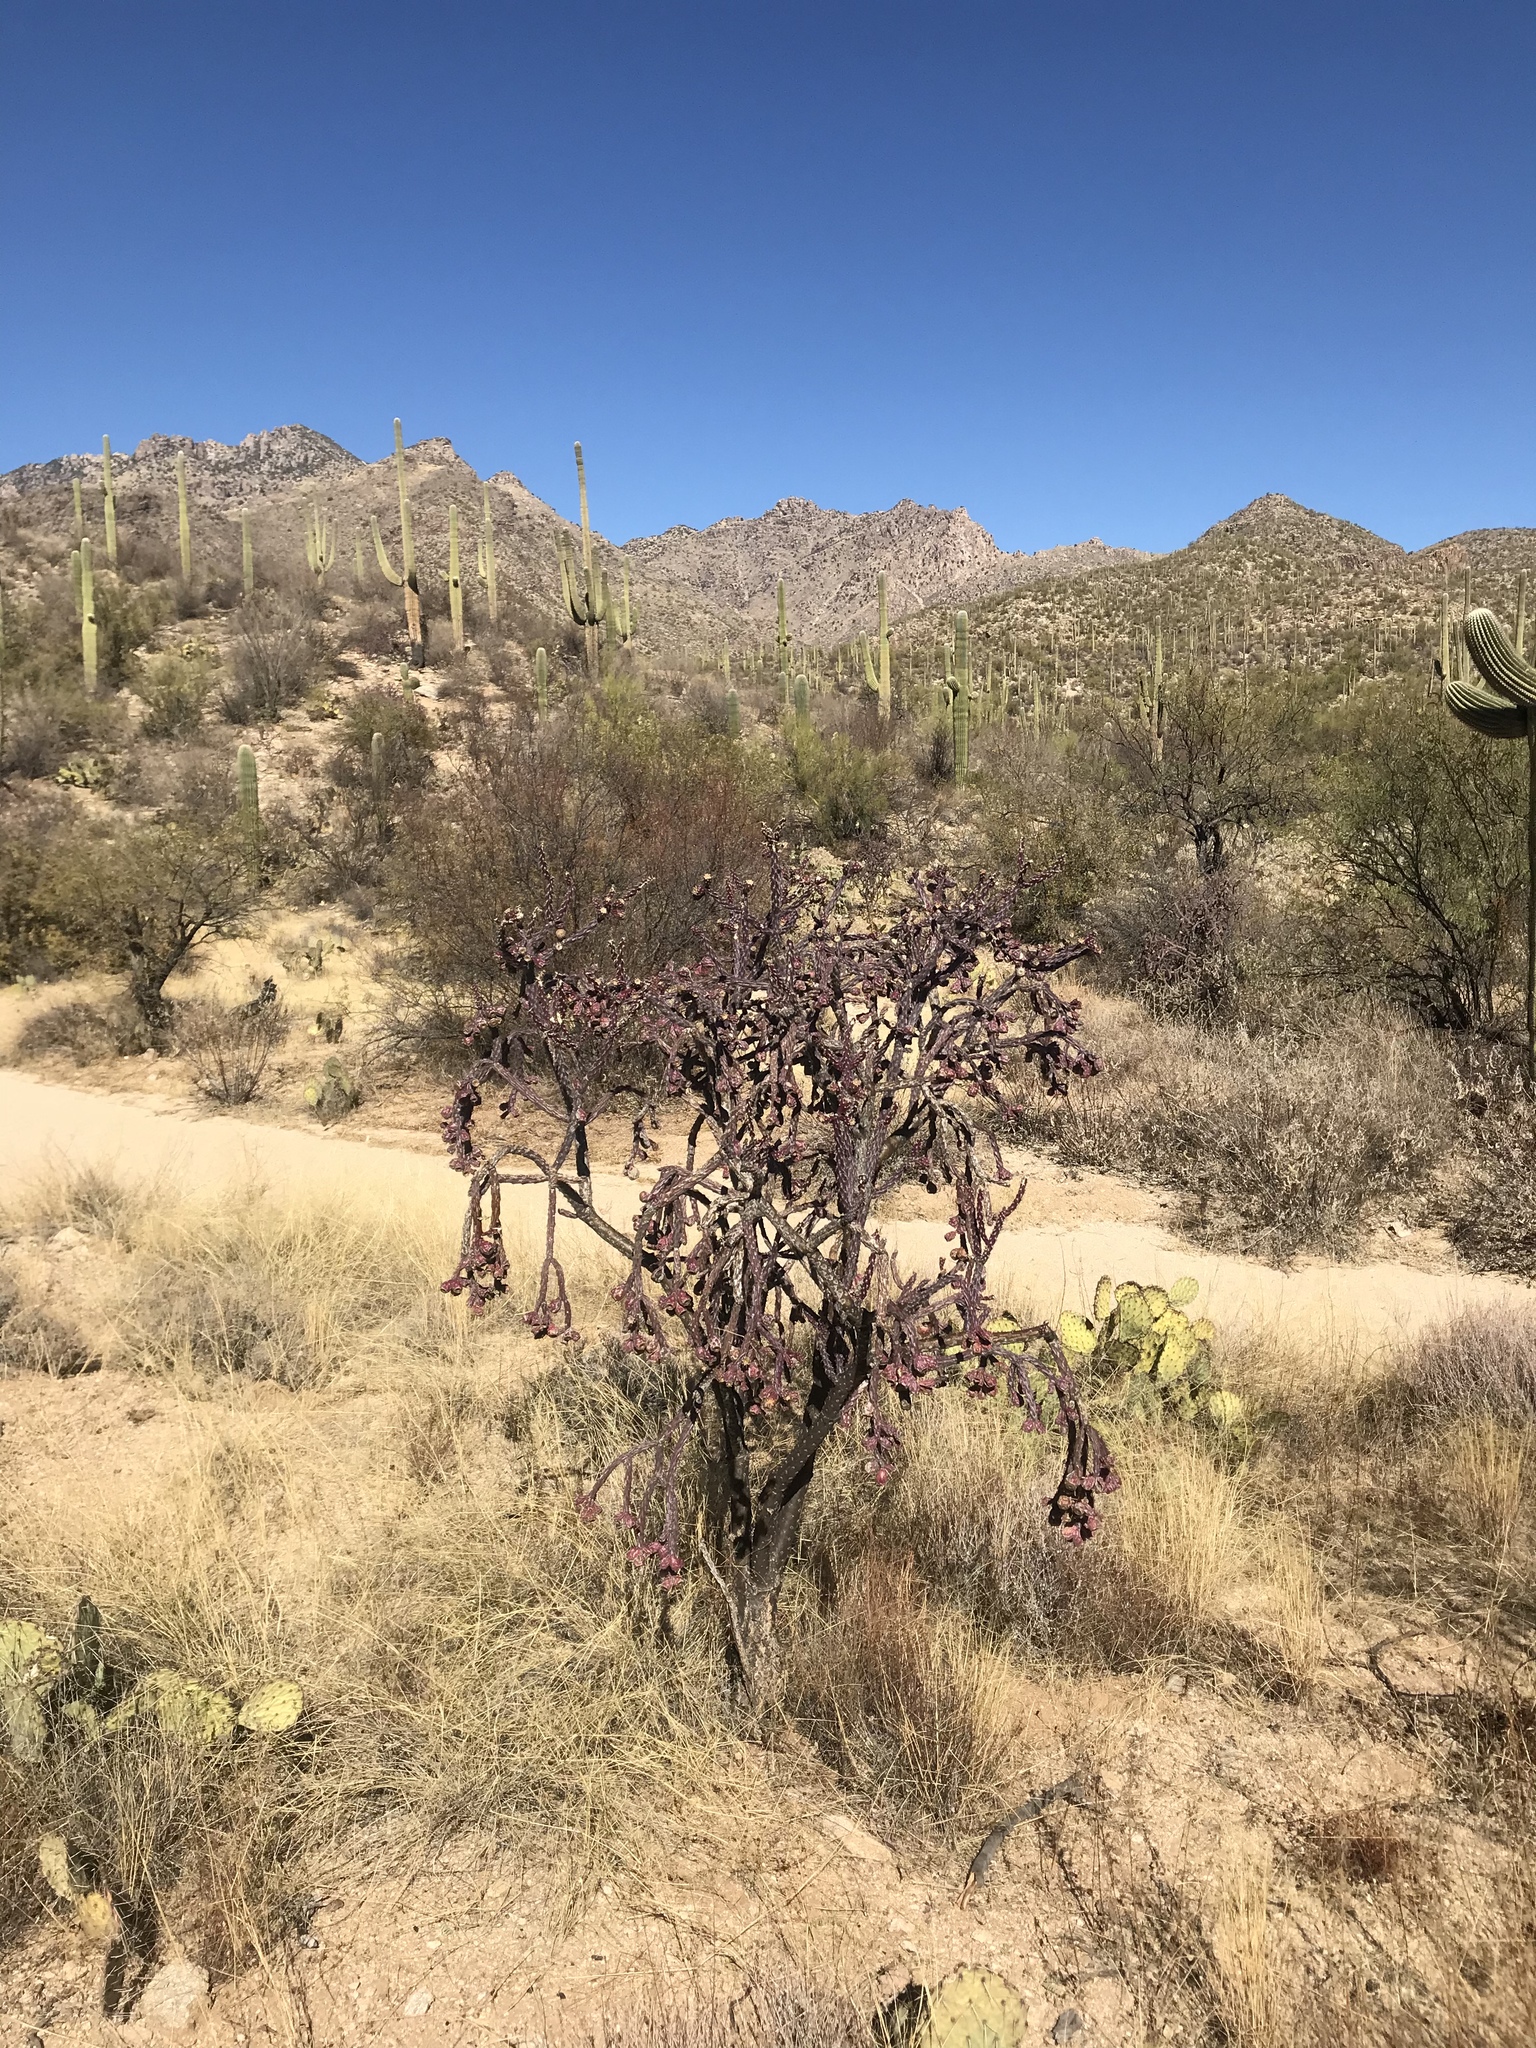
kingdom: Plantae
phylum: Tracheophyta
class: Magnoliopsida
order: Caryophyllales
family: Cactaceae
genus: Cylindropuntia
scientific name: Cylindropuntia thurberi
